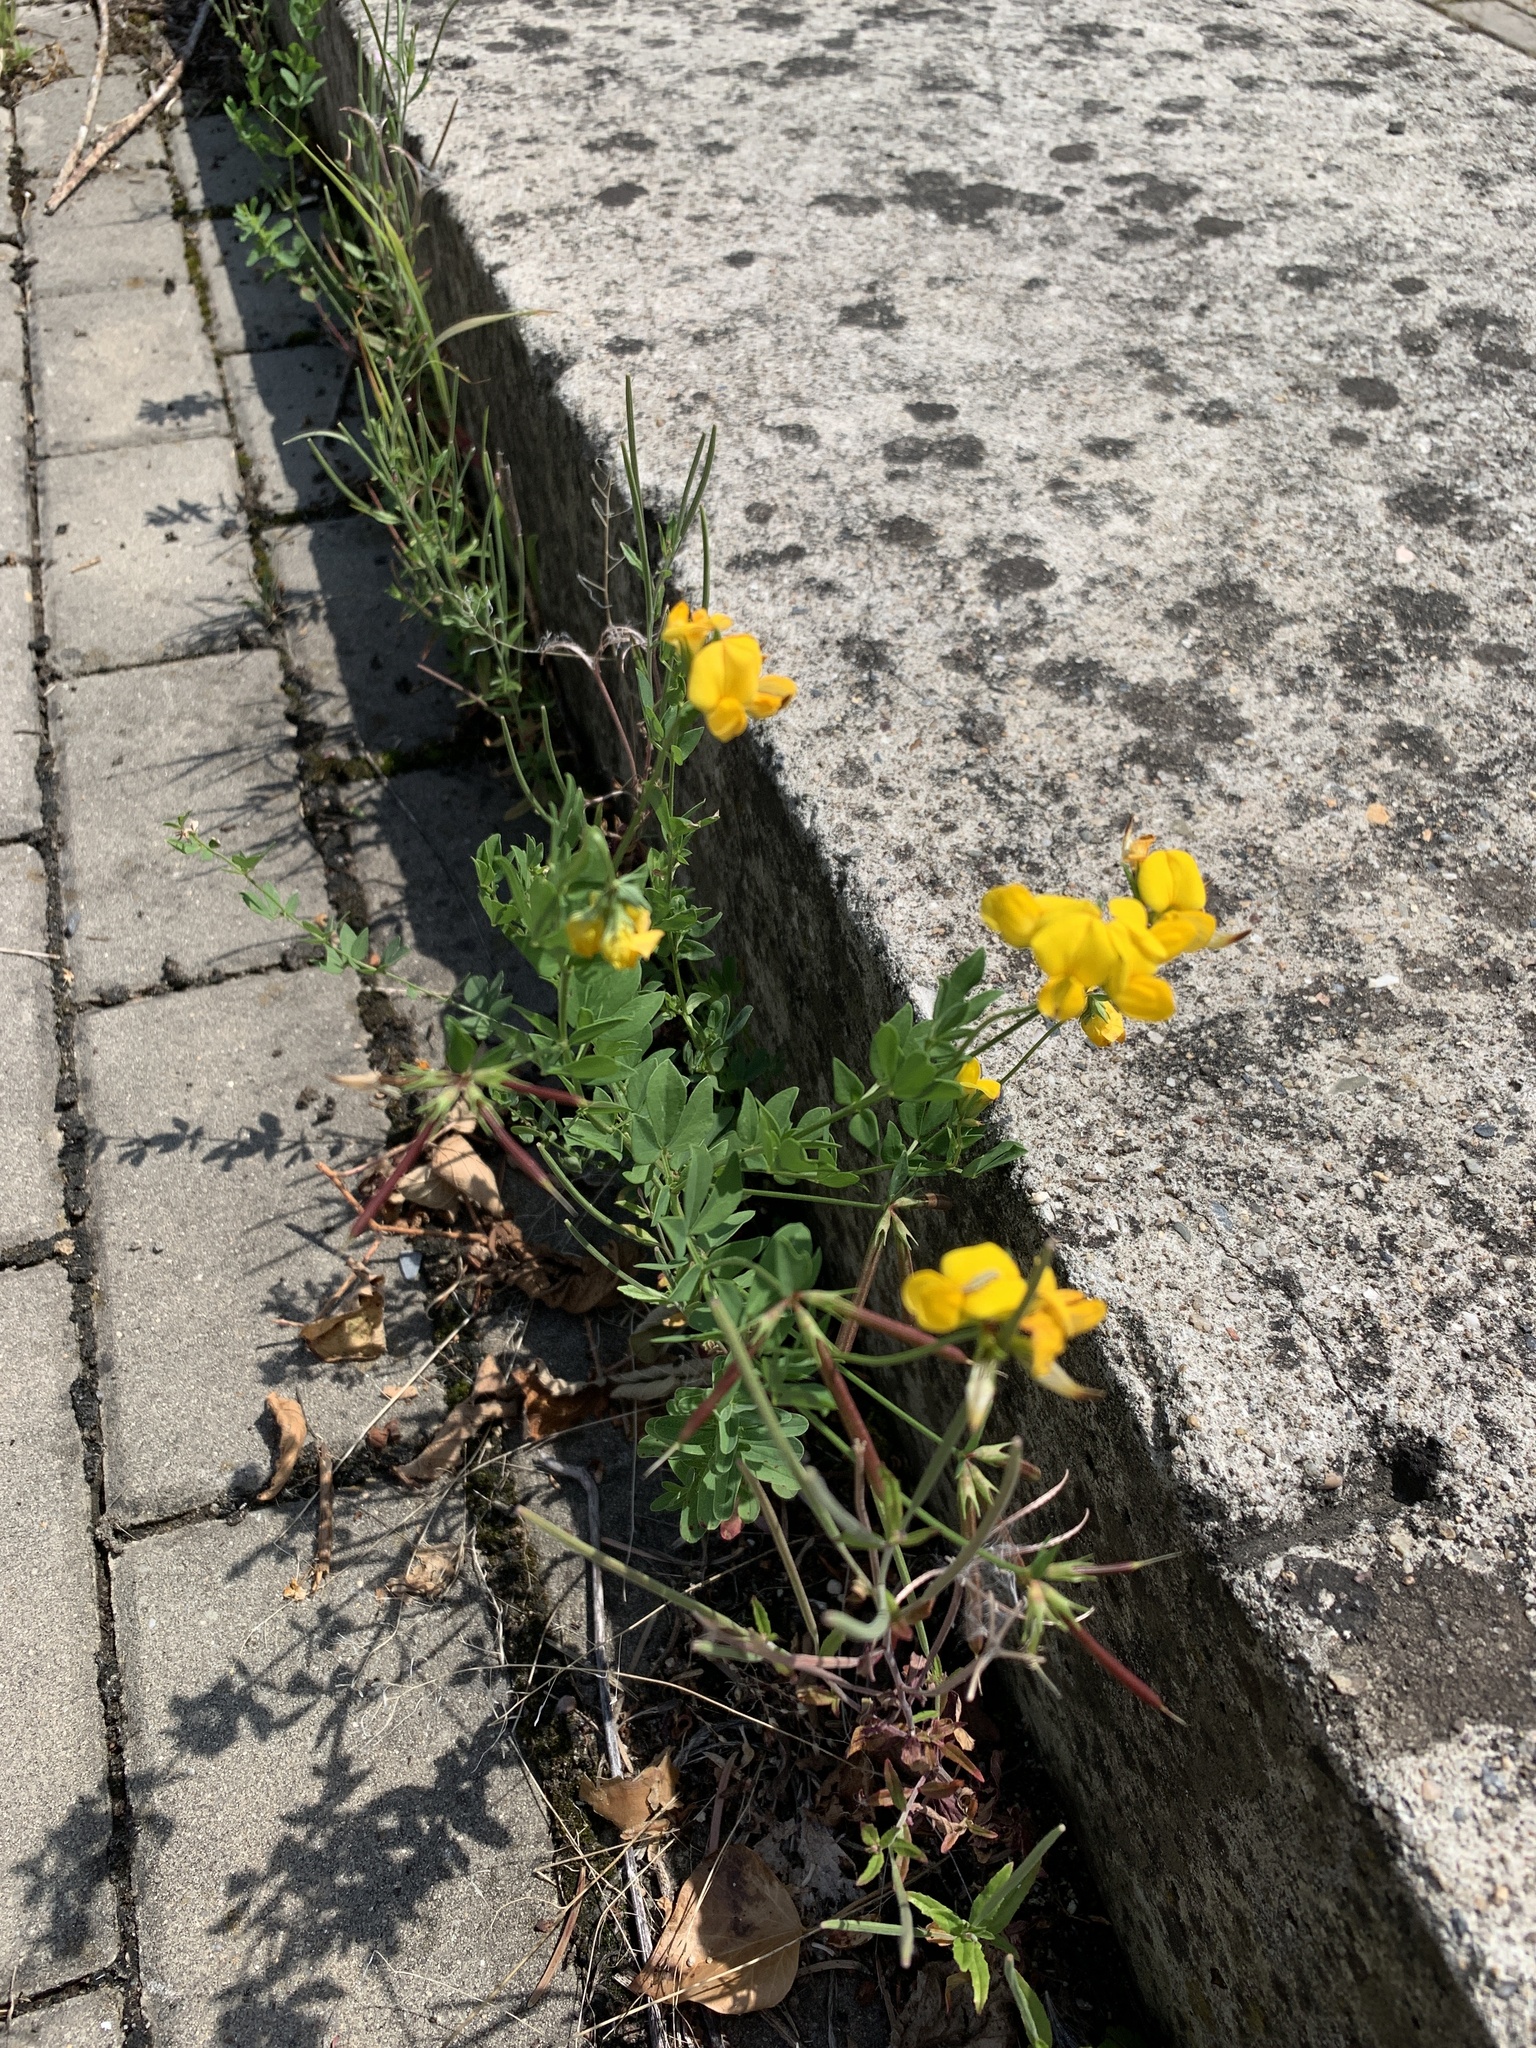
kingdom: Plantae
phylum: Tracheophyta
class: Magnoliopsida
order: Fabales
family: Fabaceae
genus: Lotus
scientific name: Lotus corniculatus
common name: Common bird's-foot-trefoil
